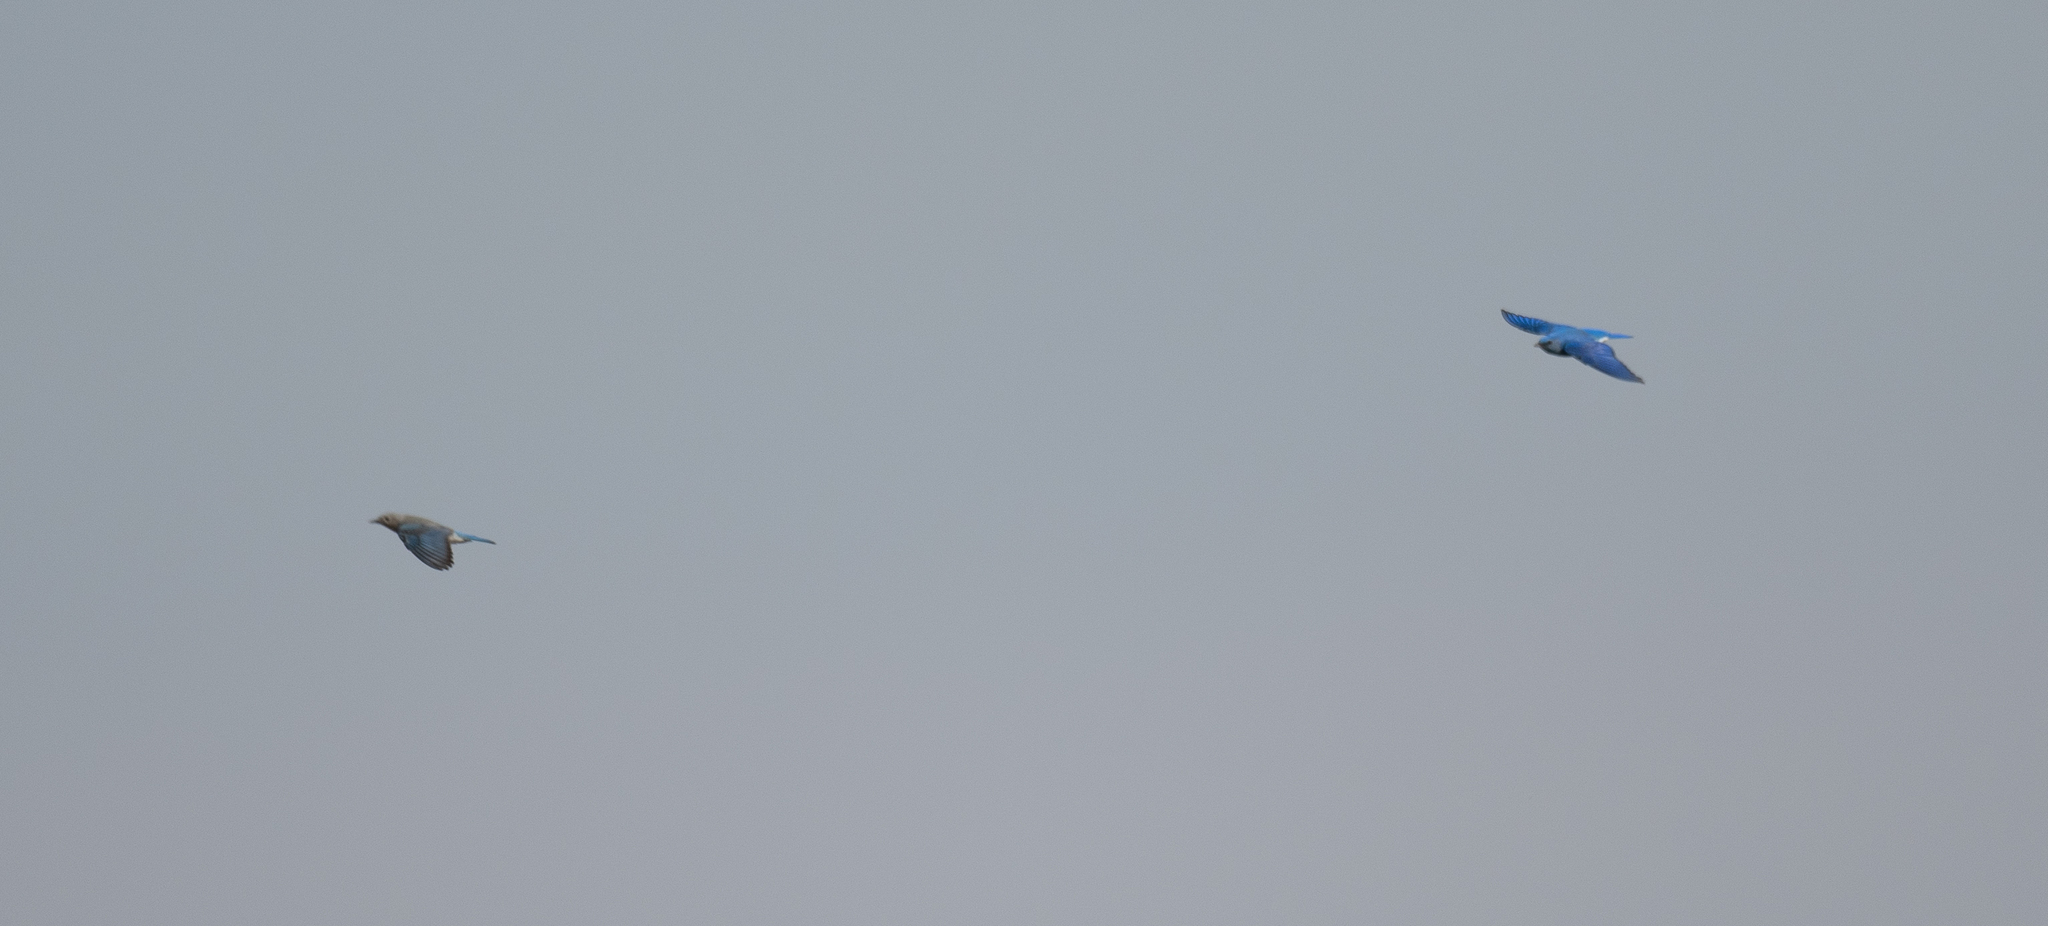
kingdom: Animalia
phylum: Chordata
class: Aves
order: Passeriformes
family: Turdidae
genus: Sialia
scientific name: Sialia currucoides
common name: Mountain bluebird
